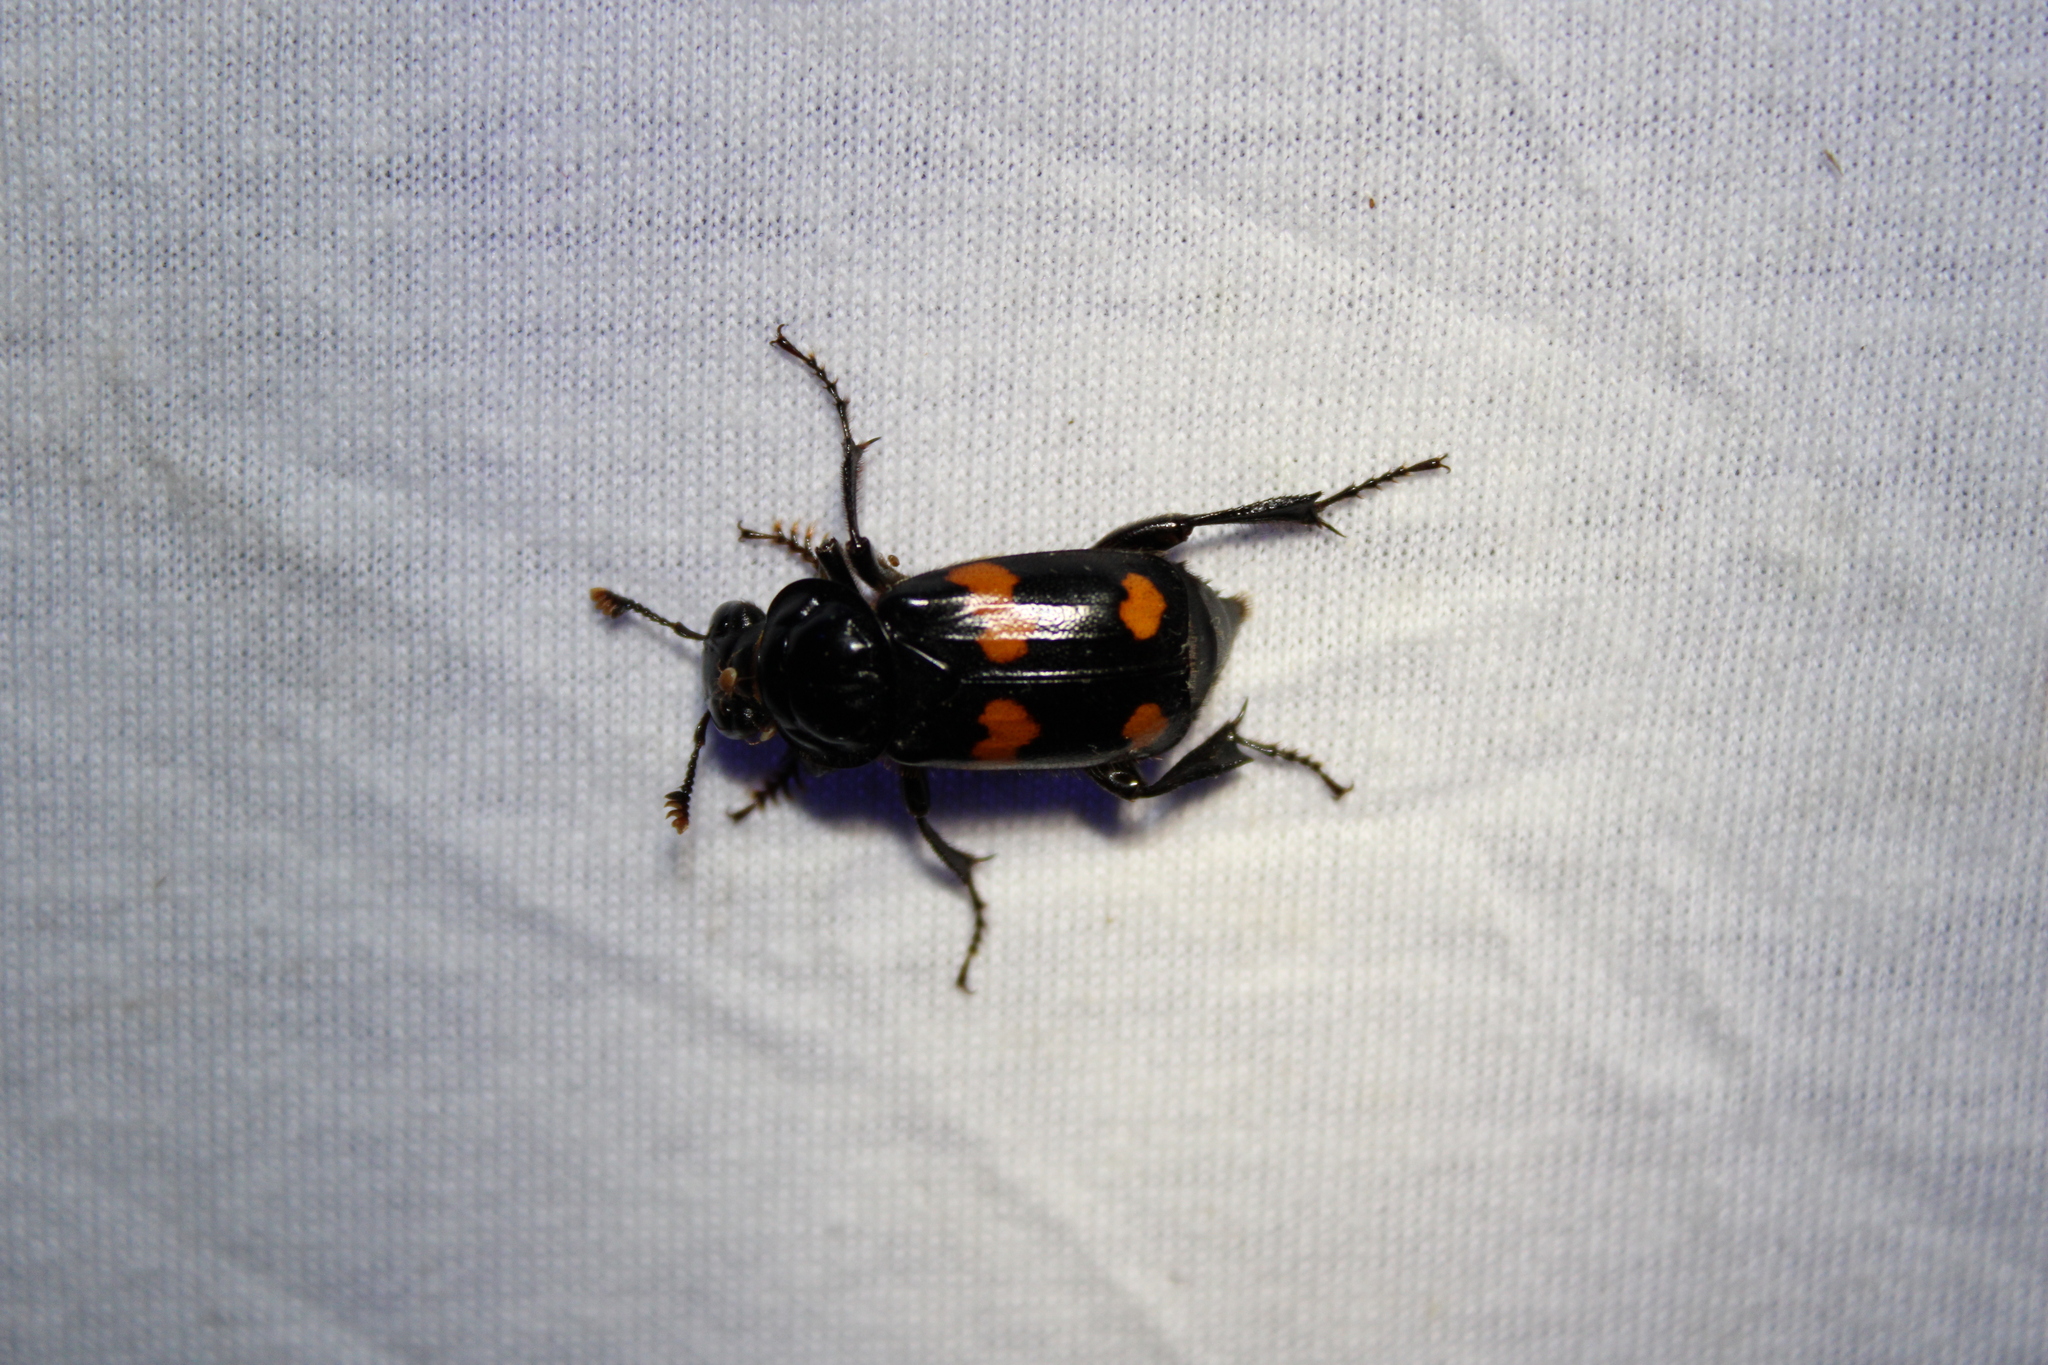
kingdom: Animalia
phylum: Arthropoda
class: Insecta
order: Coleoptera
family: Staphylinidae
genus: Nicrophorus
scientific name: Nicrophorus orbicollis
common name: Roundneck sexton beetle
